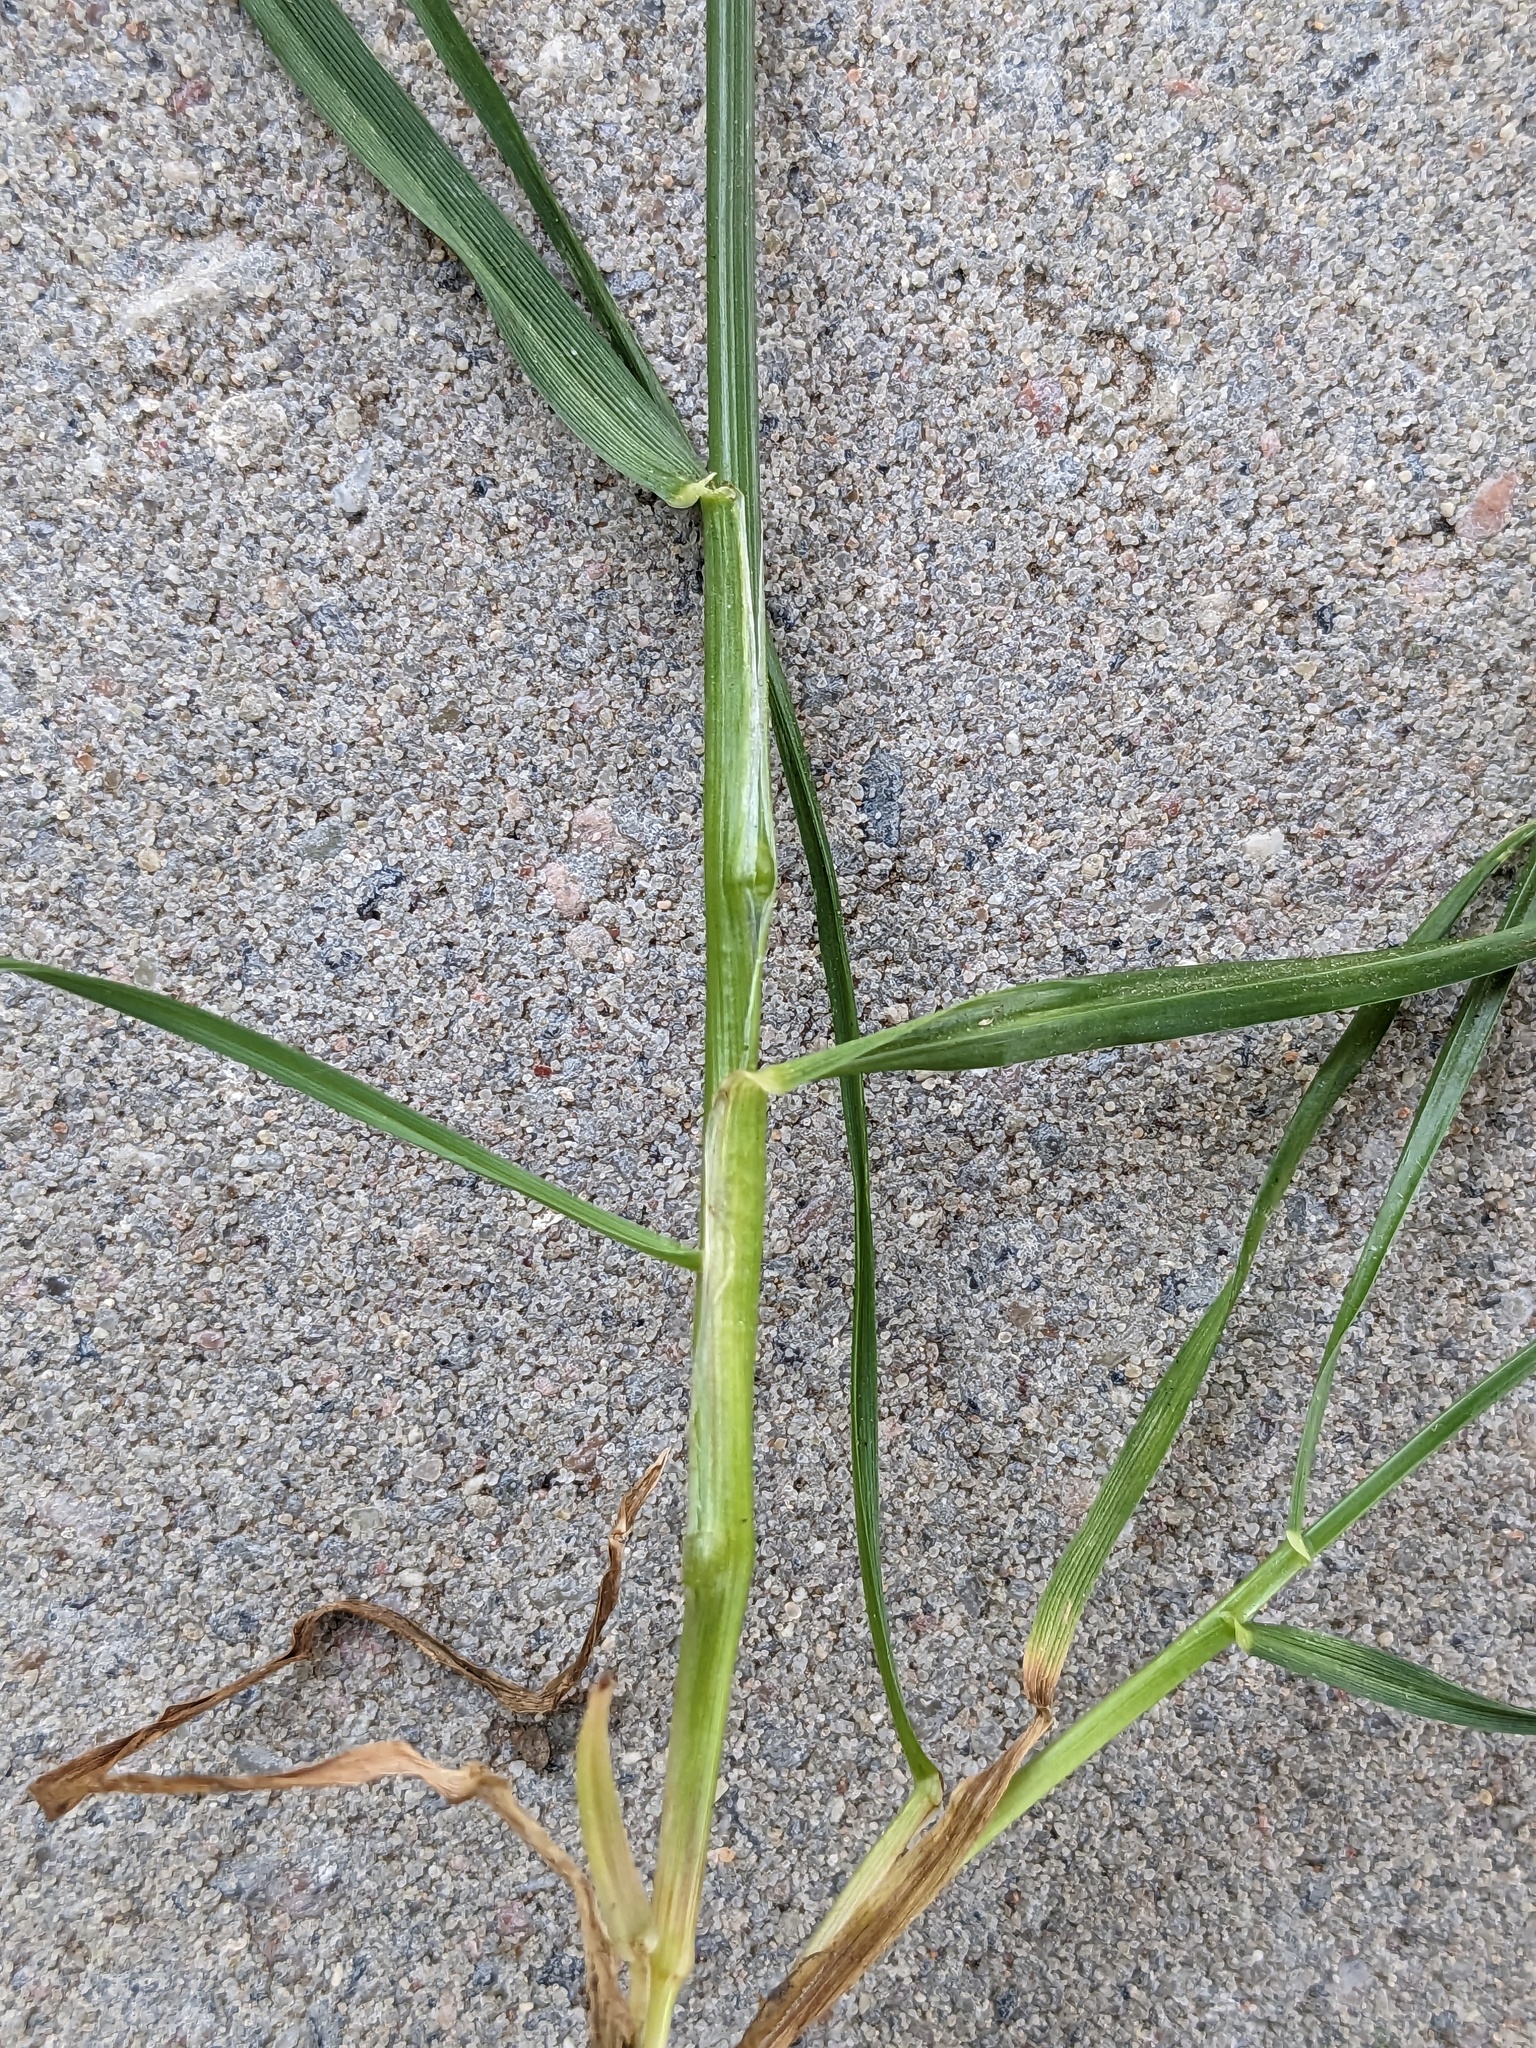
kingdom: Plantae
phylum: Tracheophyta
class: Liliopsida
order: Poales
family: Poaceae
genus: Lolium
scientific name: Lolium perenne
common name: Perennial ryegrass
